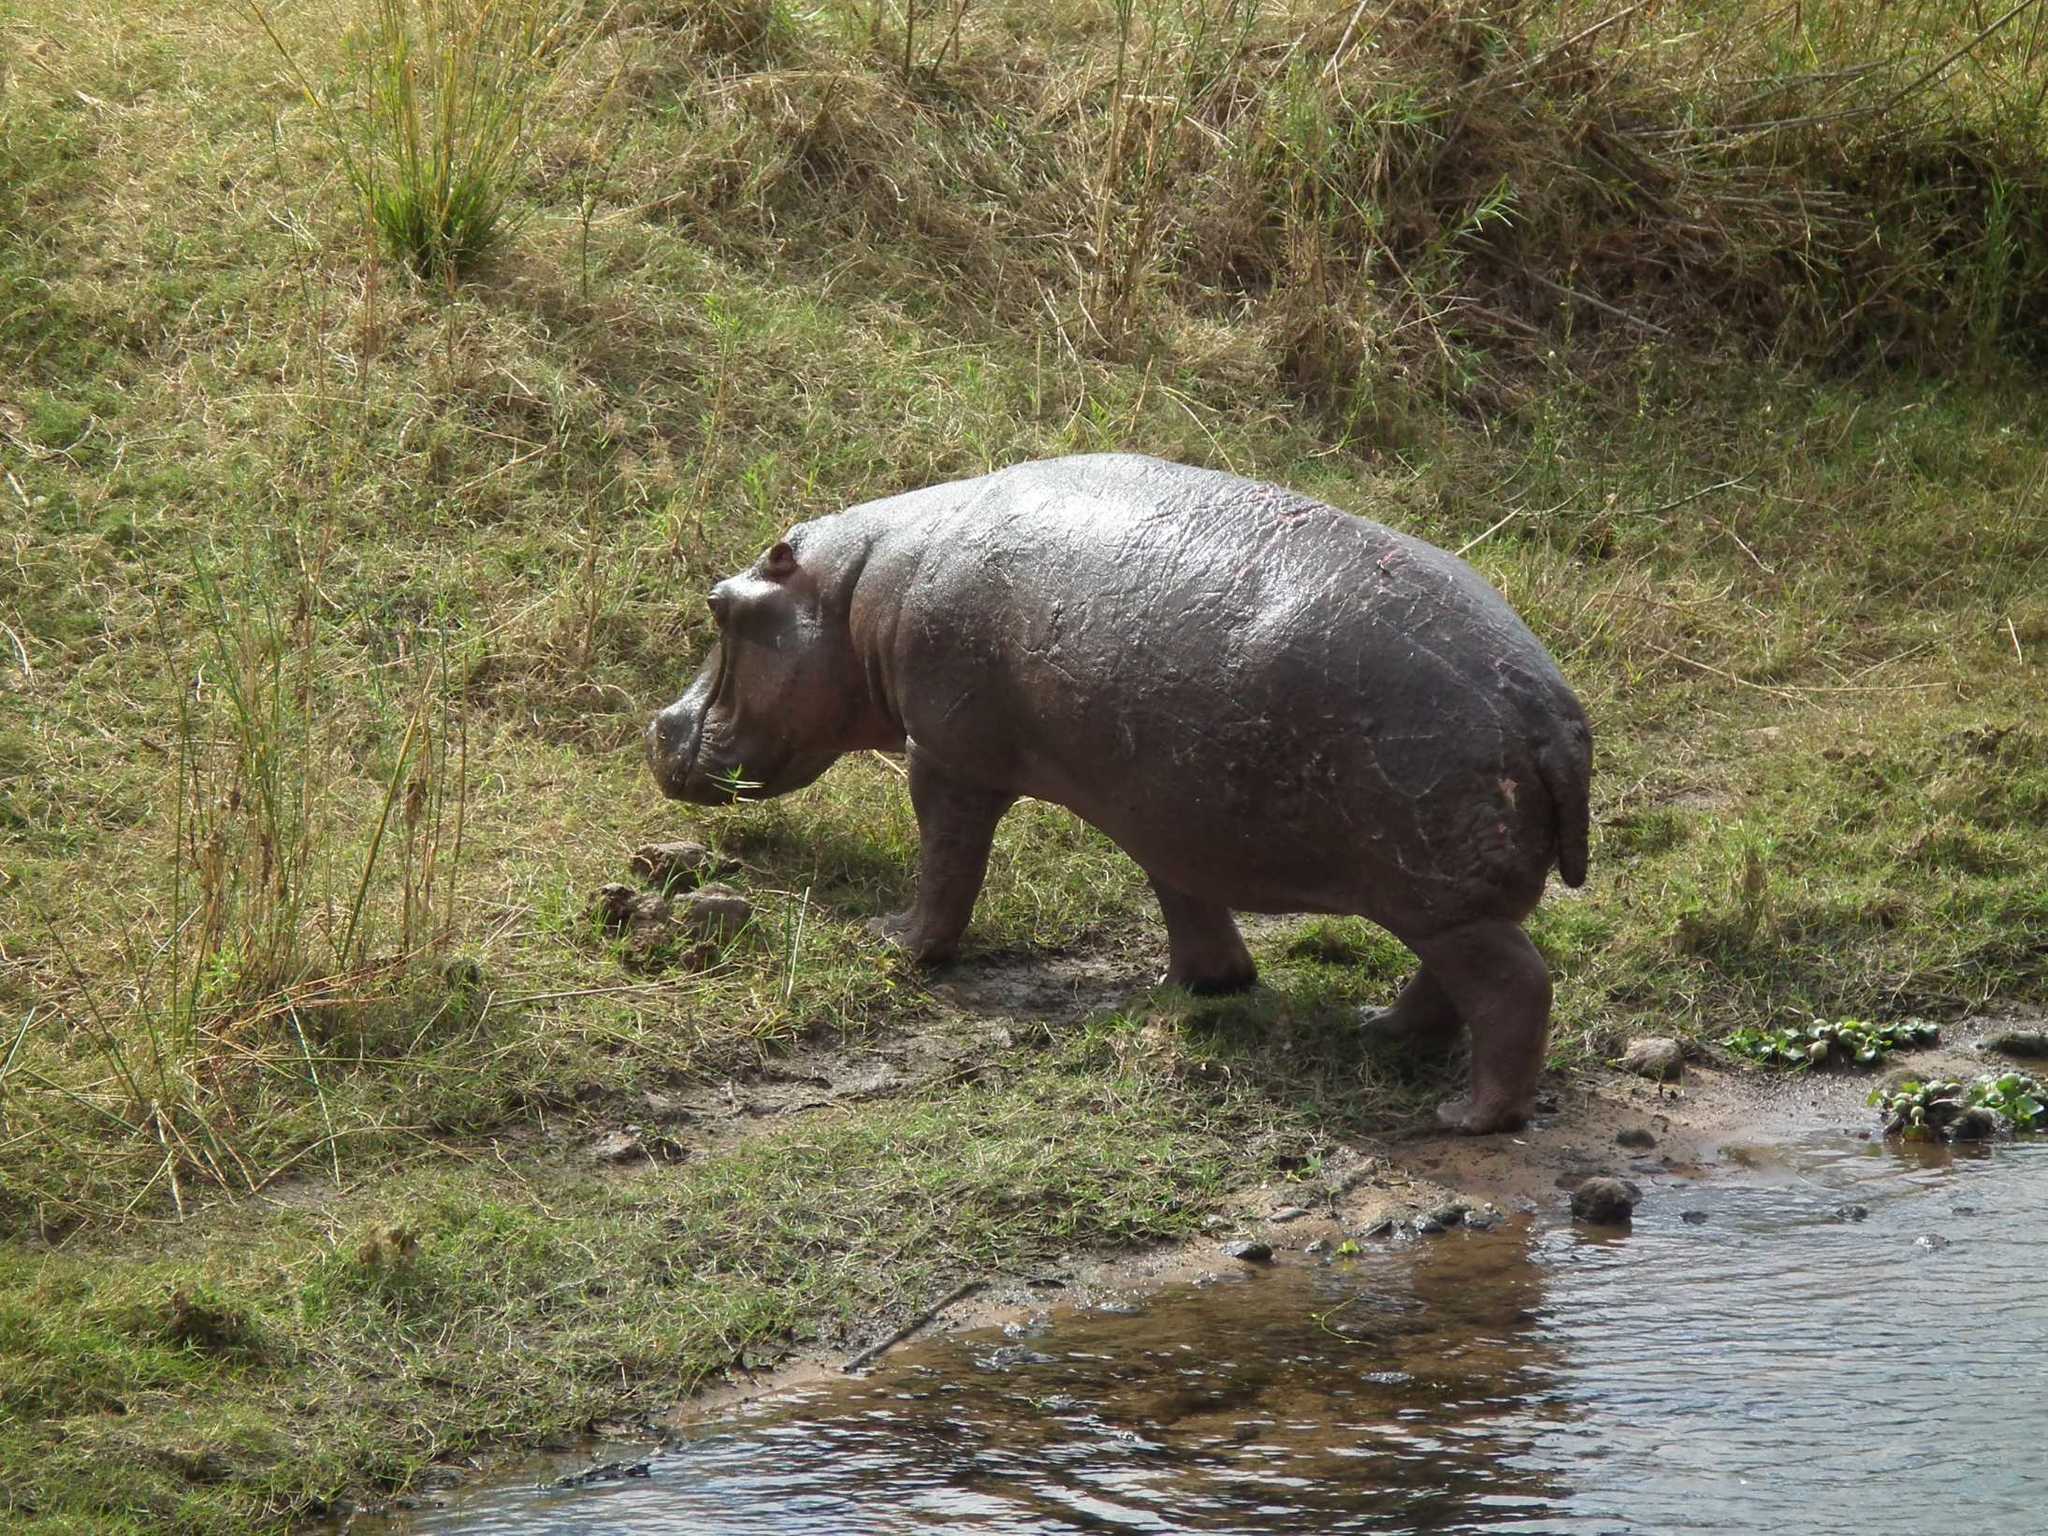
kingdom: Animalia
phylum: Chordata
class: Mammalia
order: Artiodactyla
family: Hippopotamidae
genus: Hippopotamus
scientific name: Hippopotamus amphibius
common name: Common hippopotamus
